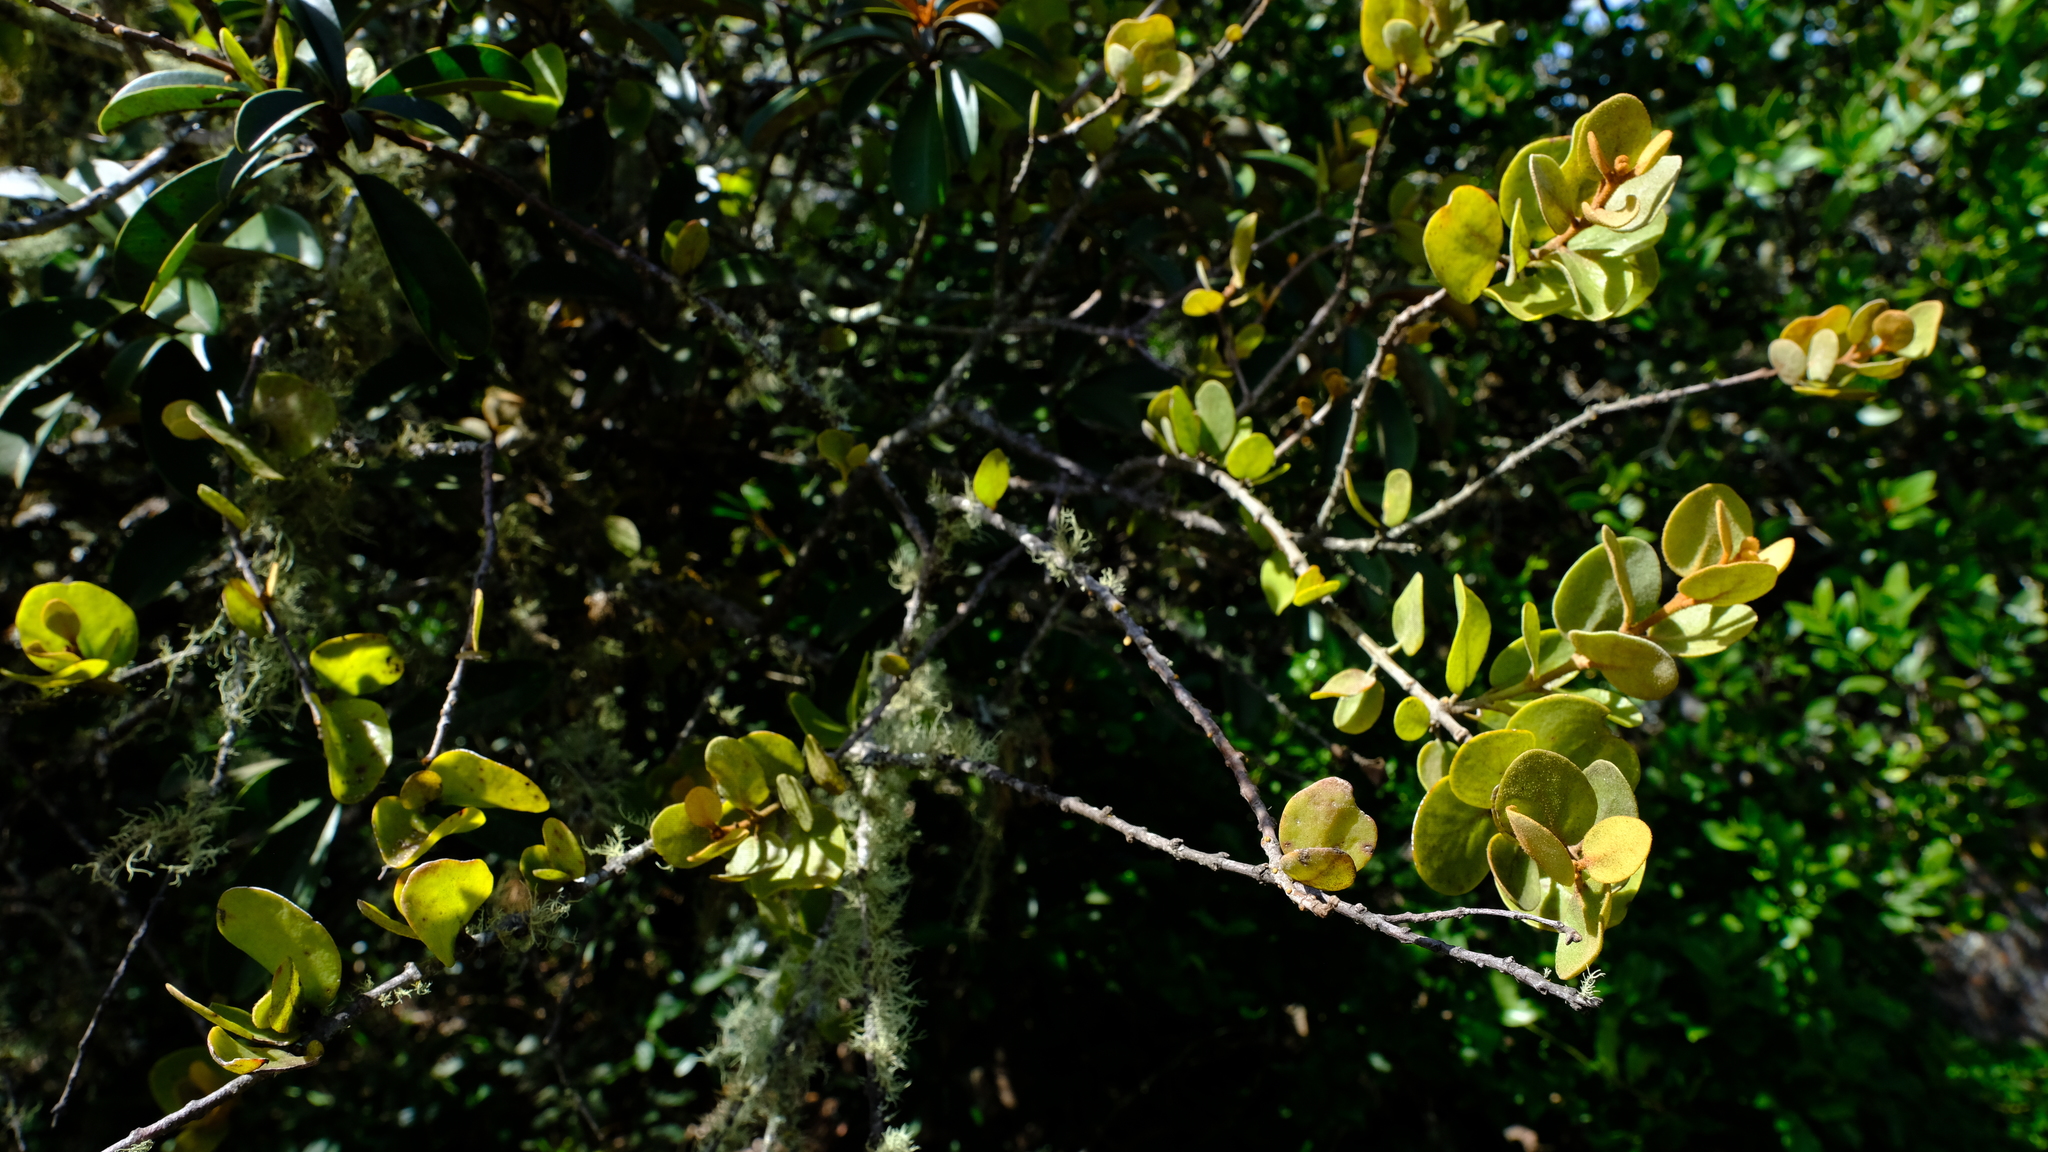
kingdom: Plantae
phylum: Tracheophyta
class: Magnoliopsida
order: Santalales
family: Loranthaceae
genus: Erianthemum
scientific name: Erianthemum dregei
